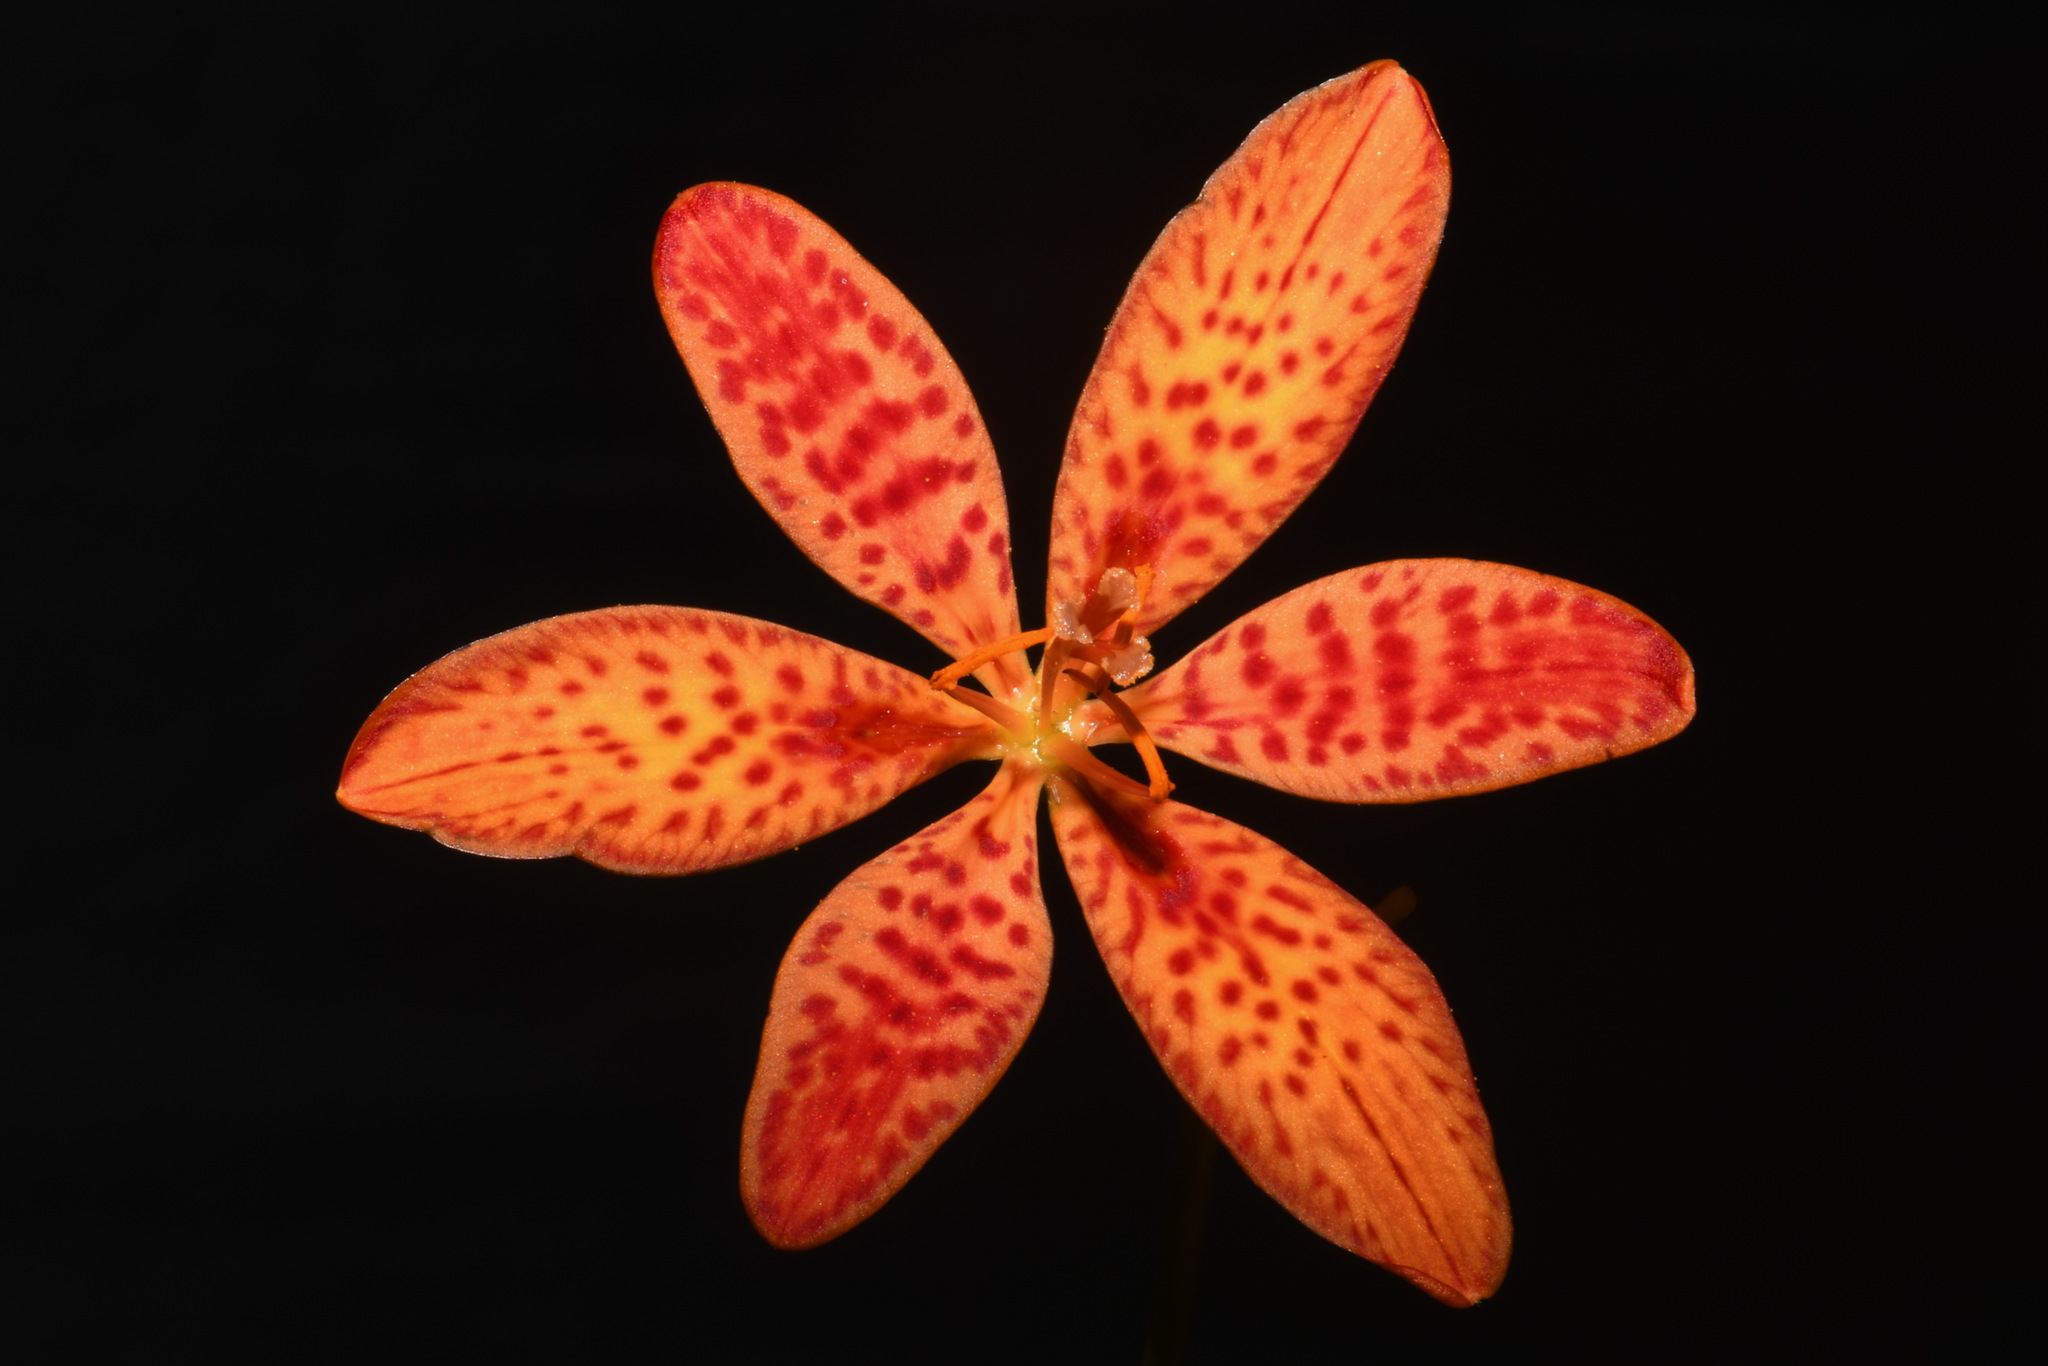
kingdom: Plantae
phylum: Tracheophyta
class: Liliopsida
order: Asparagales
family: Iridaceae
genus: Iris
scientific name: Iris domestica
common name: Belamcanda
